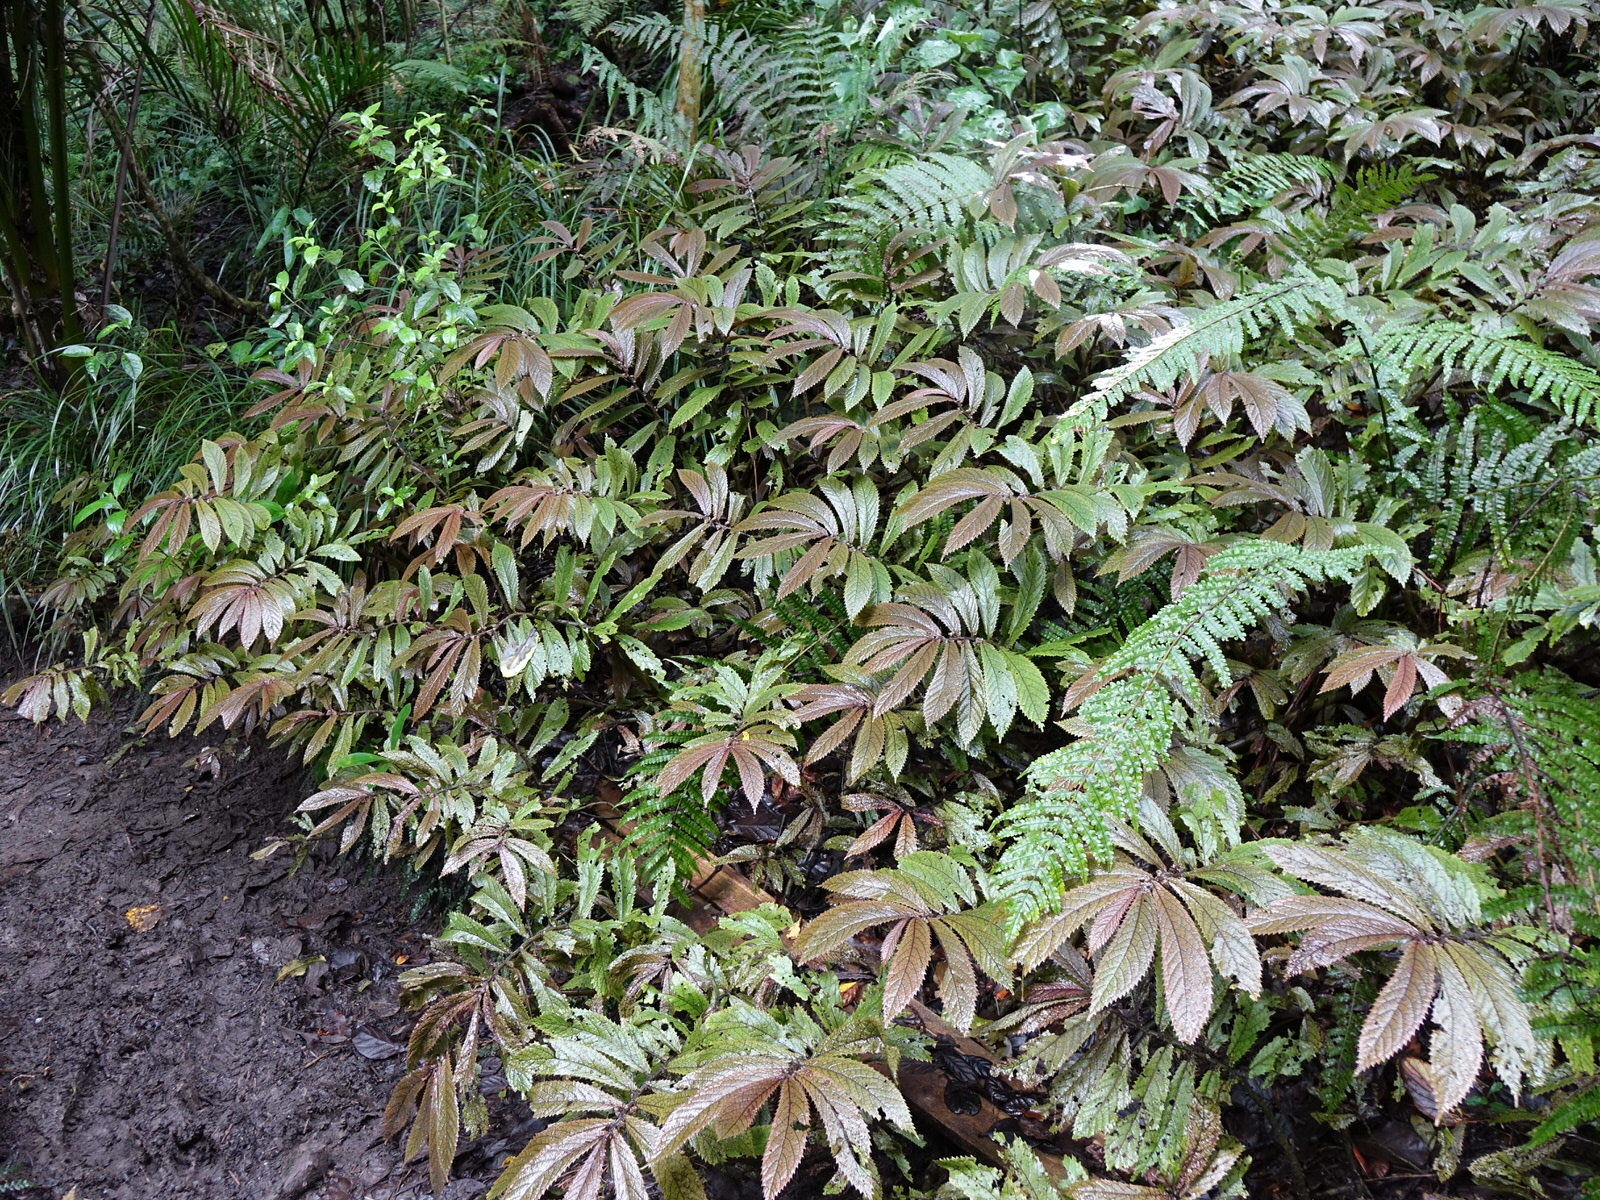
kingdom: Plantae
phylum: Tracheophyta
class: Magnoliopsida
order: Rosales
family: Urticaceae
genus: Elatostema
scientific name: Elatostema rugosum
